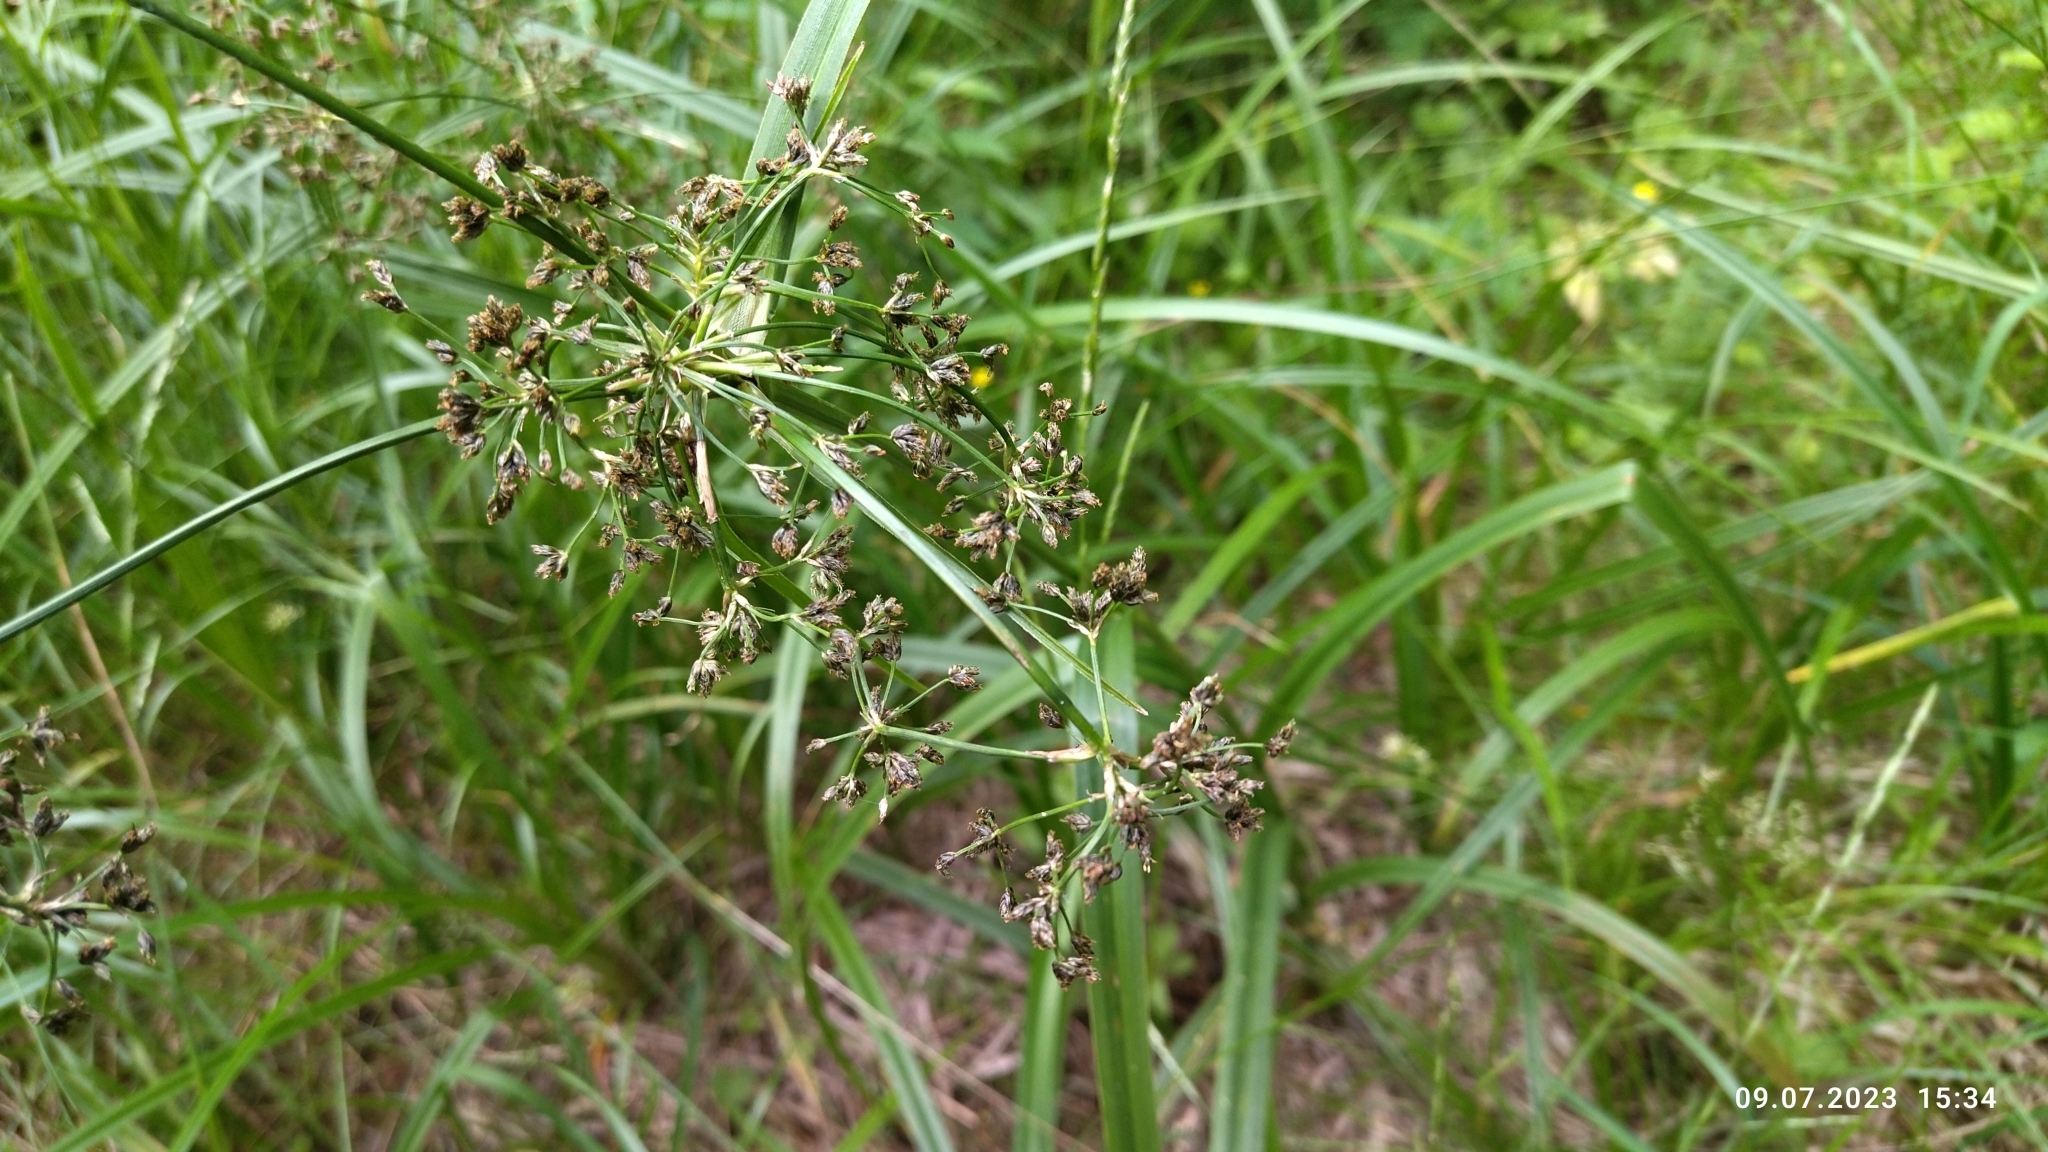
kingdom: Plantae
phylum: Tracheophyta
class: Liliopsida
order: Poales
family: Cyperaceae
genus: Scirpus
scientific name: Scirpus sylvaticus
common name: Wood club-rush
